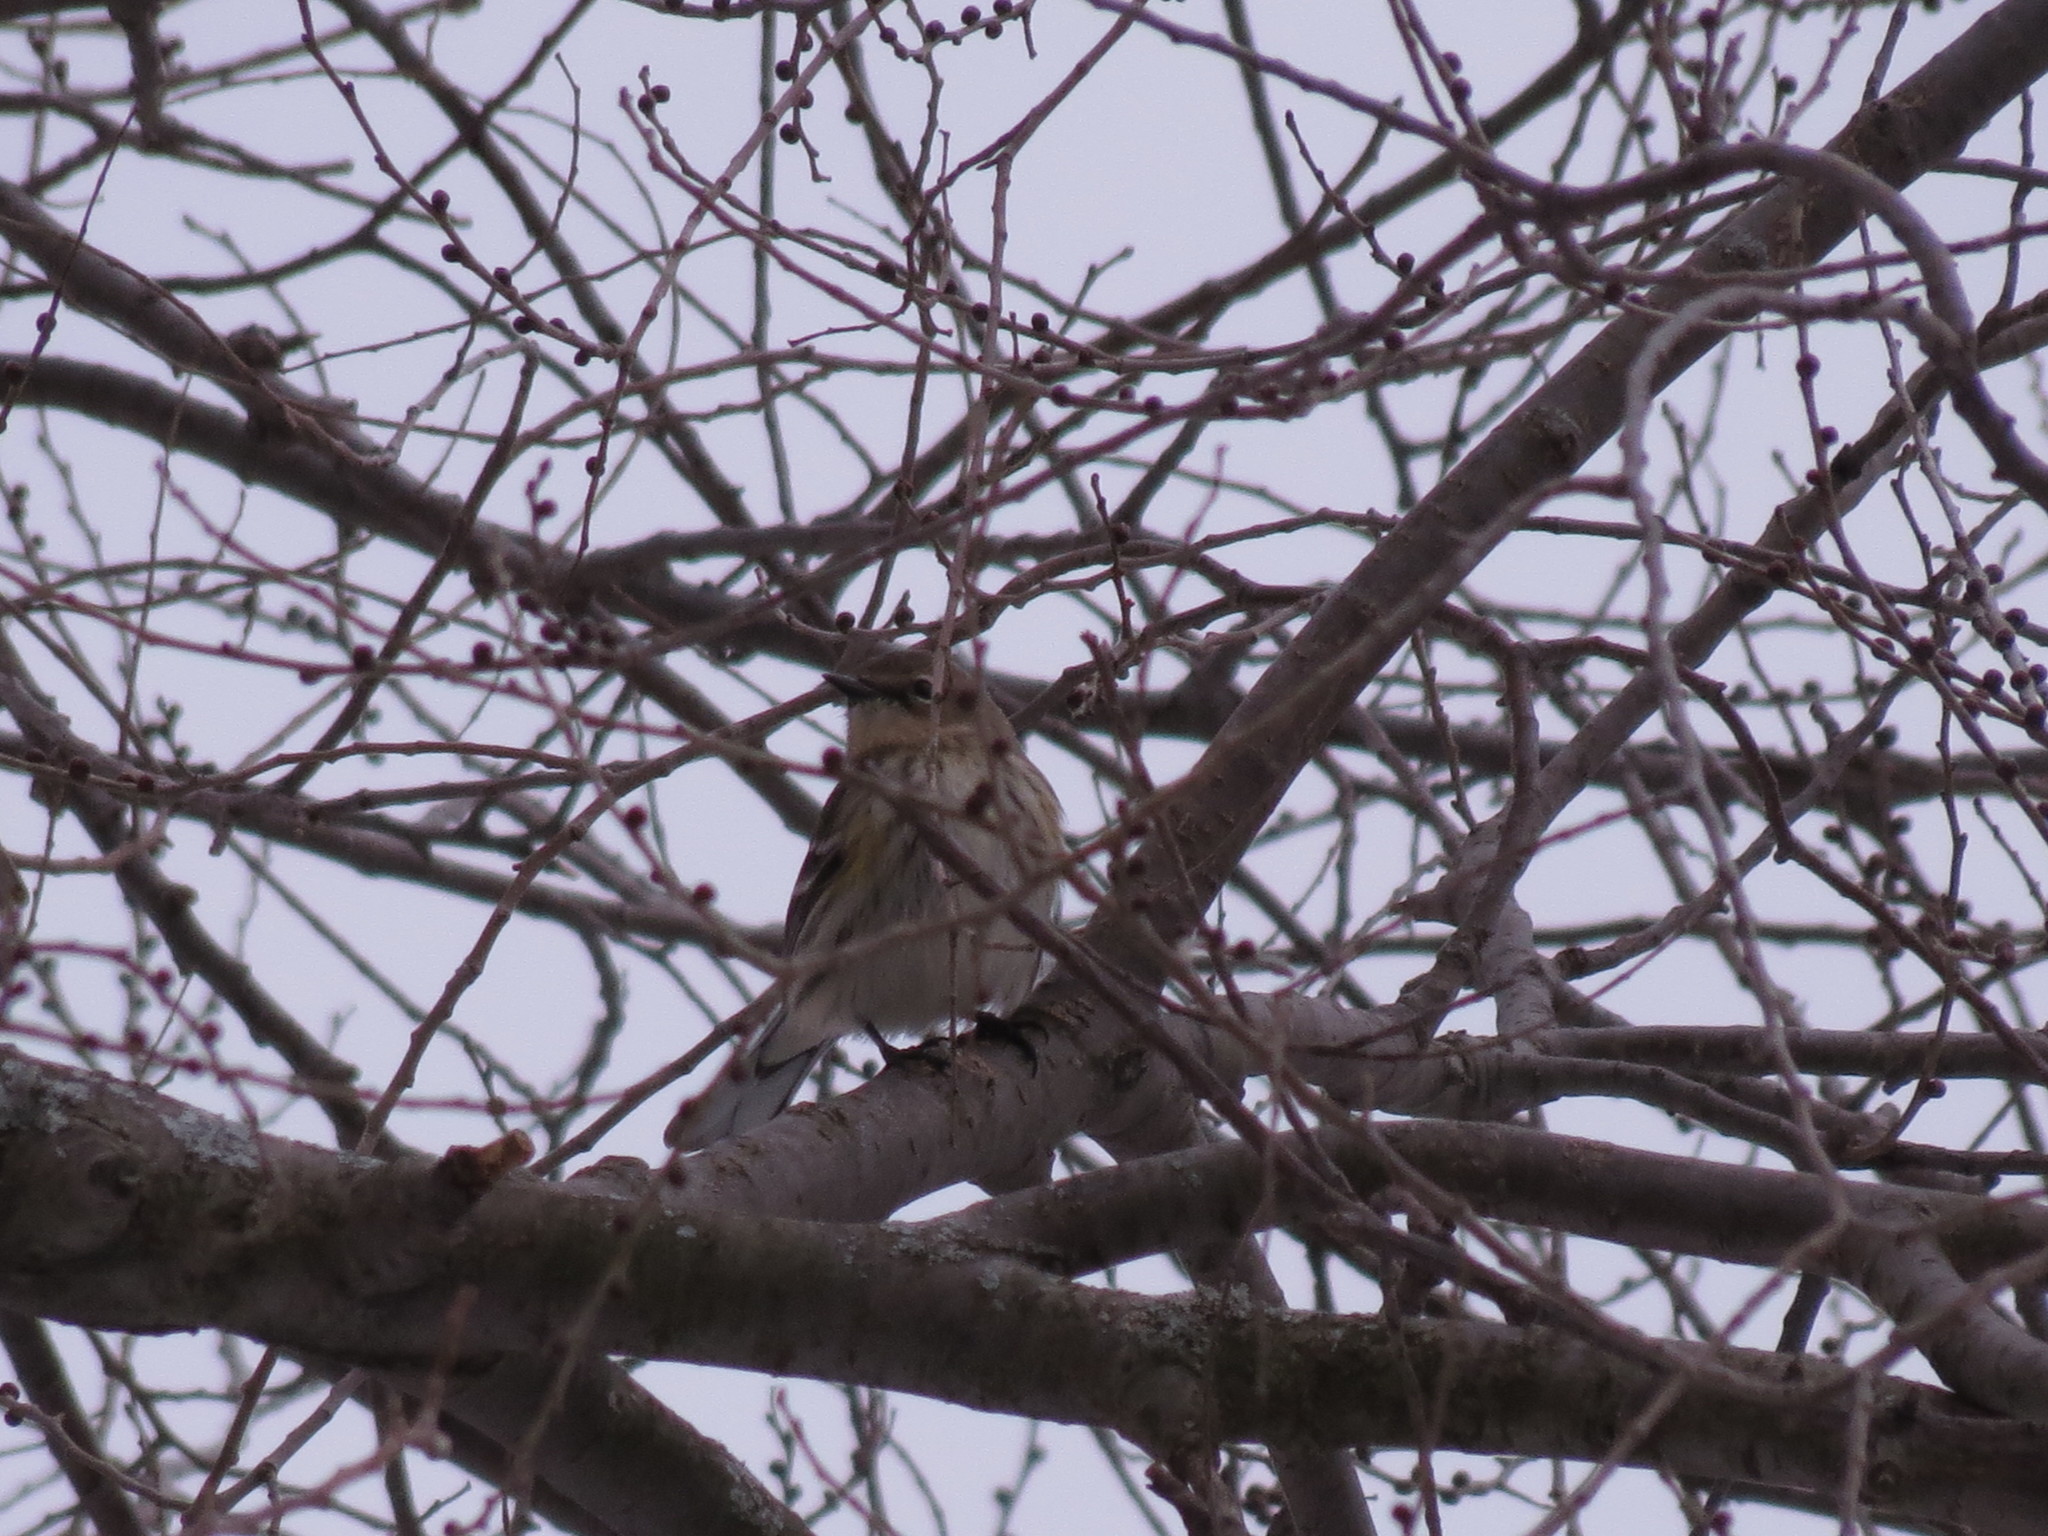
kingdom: Animalia
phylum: Chordata
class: Aves
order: Passeriformes
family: Parulidae
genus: Setophaga
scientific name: Setophaga coronata
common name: Myrtle warbler
